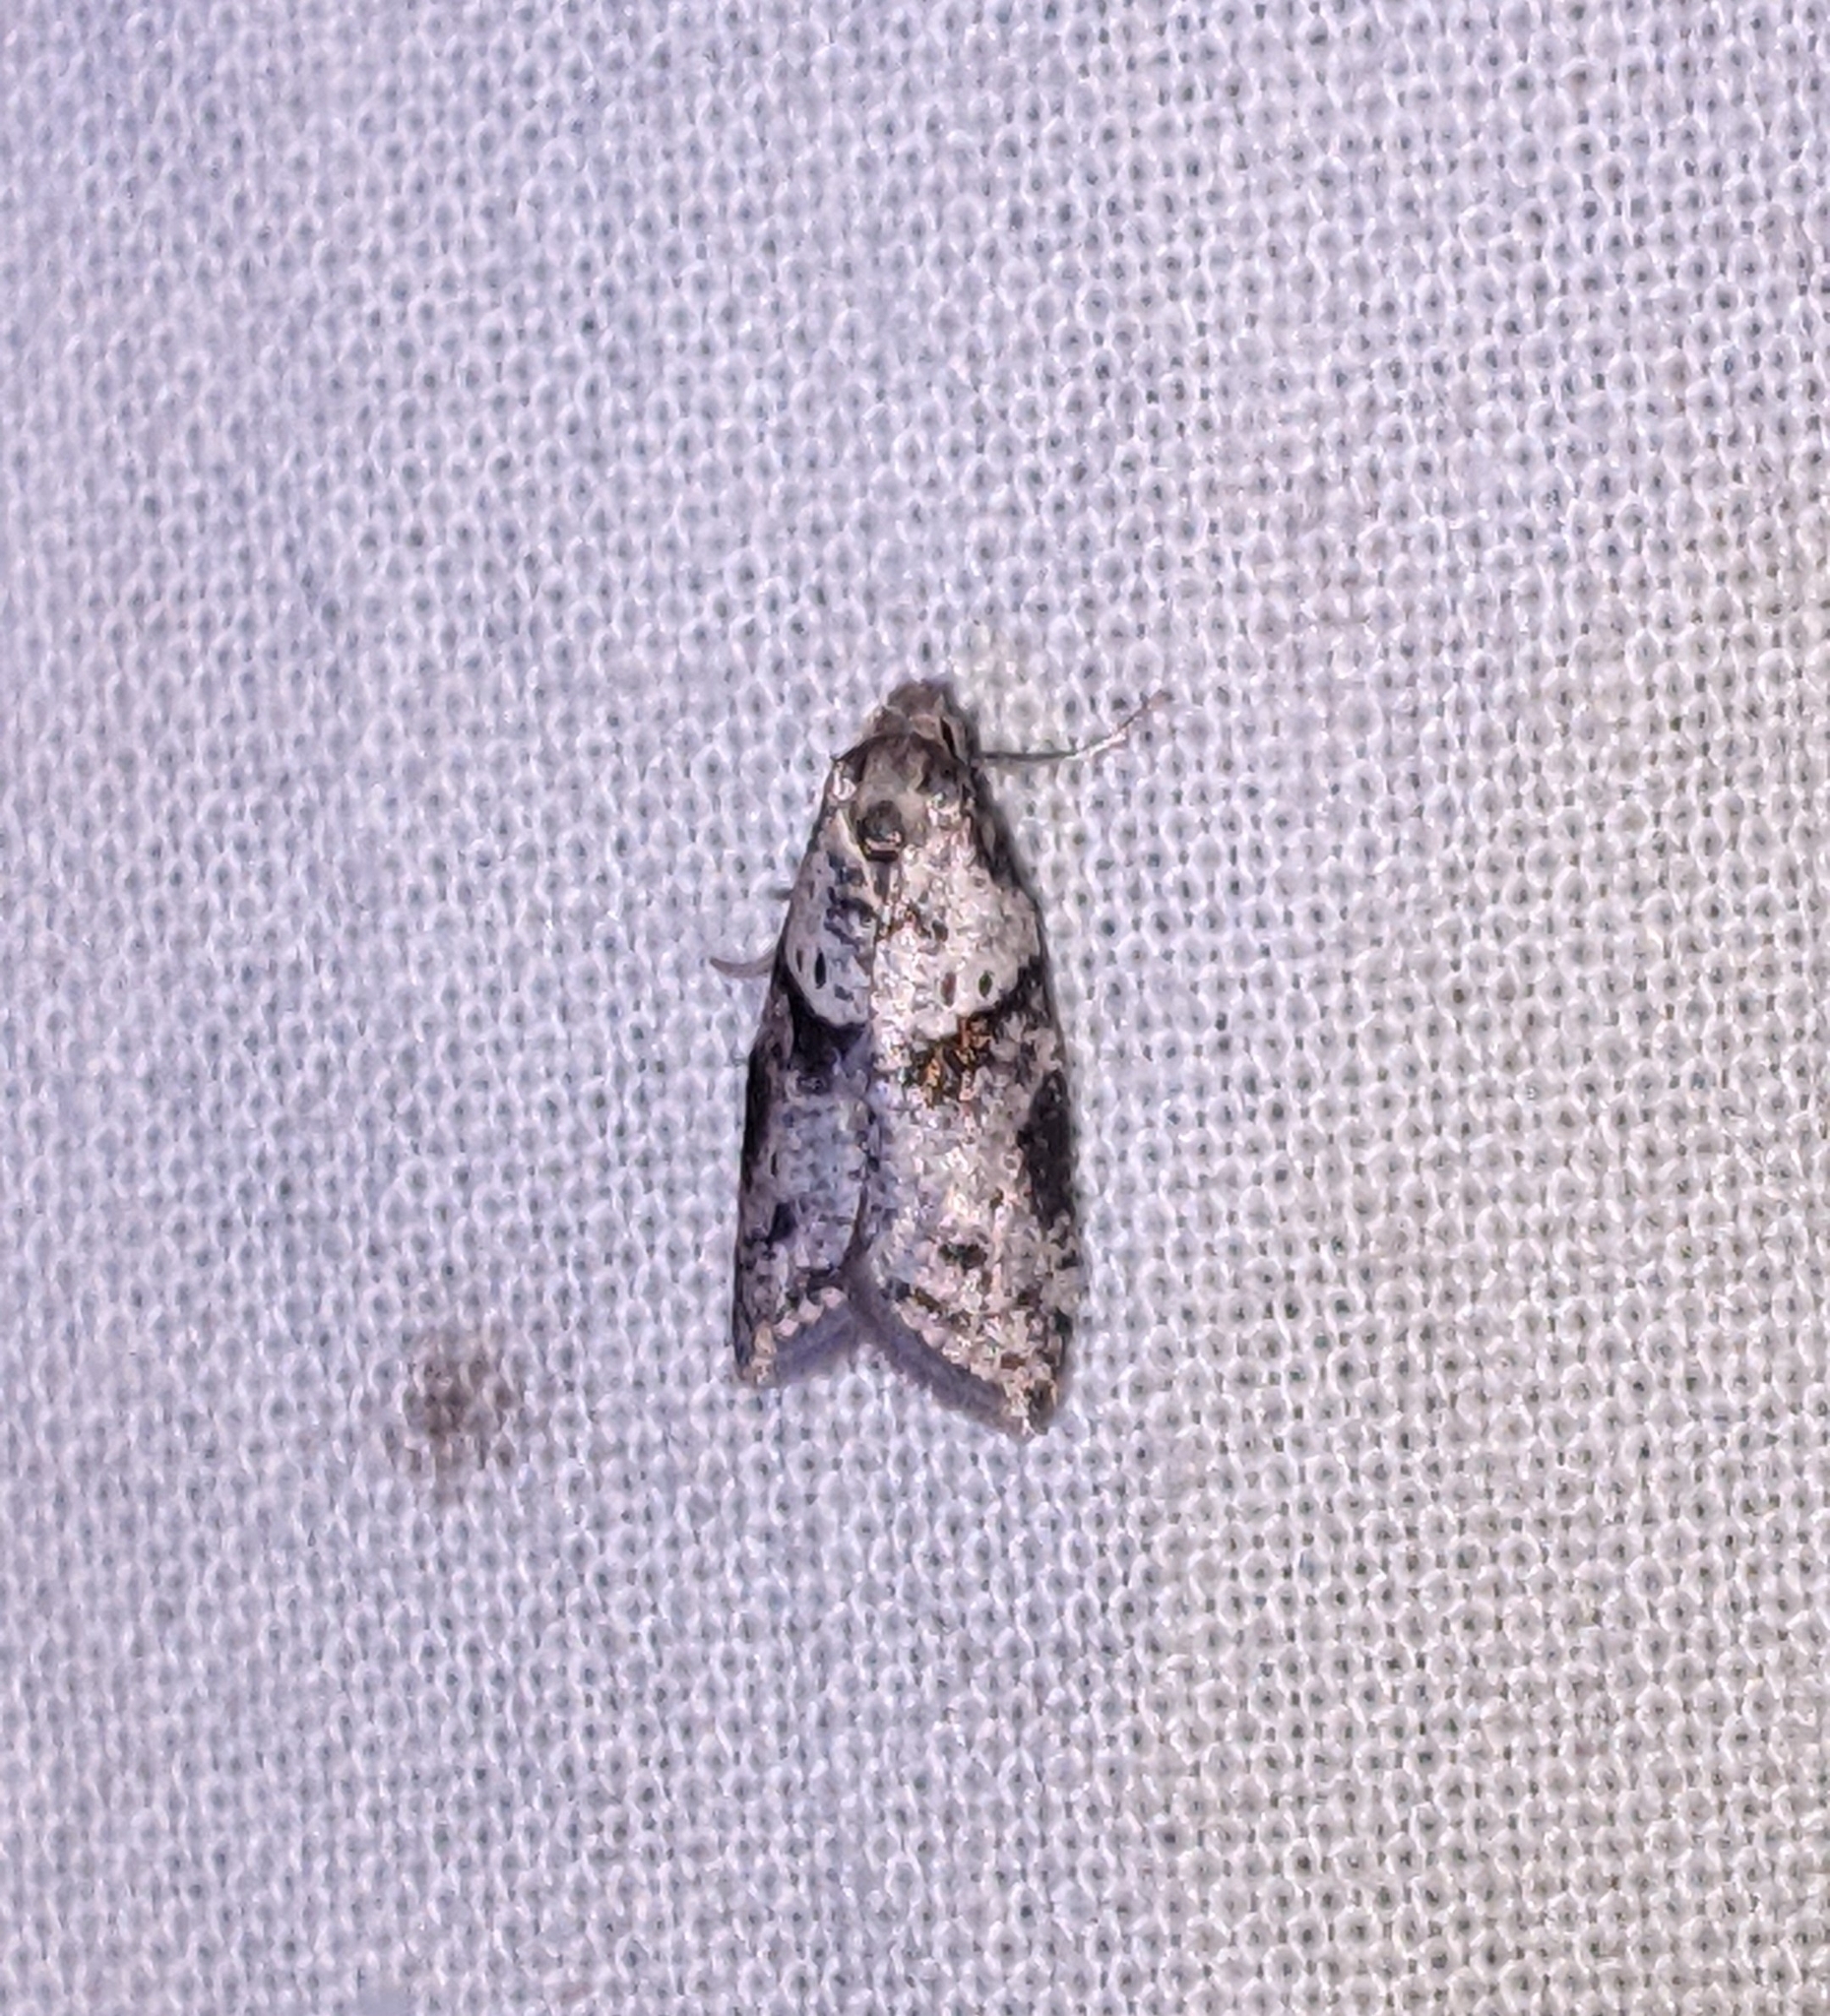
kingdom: Animalia
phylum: Arthropoda
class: Insecta
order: Lepidoptera
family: Copromorphidae
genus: Lotisma
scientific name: Lotisma trigonana
